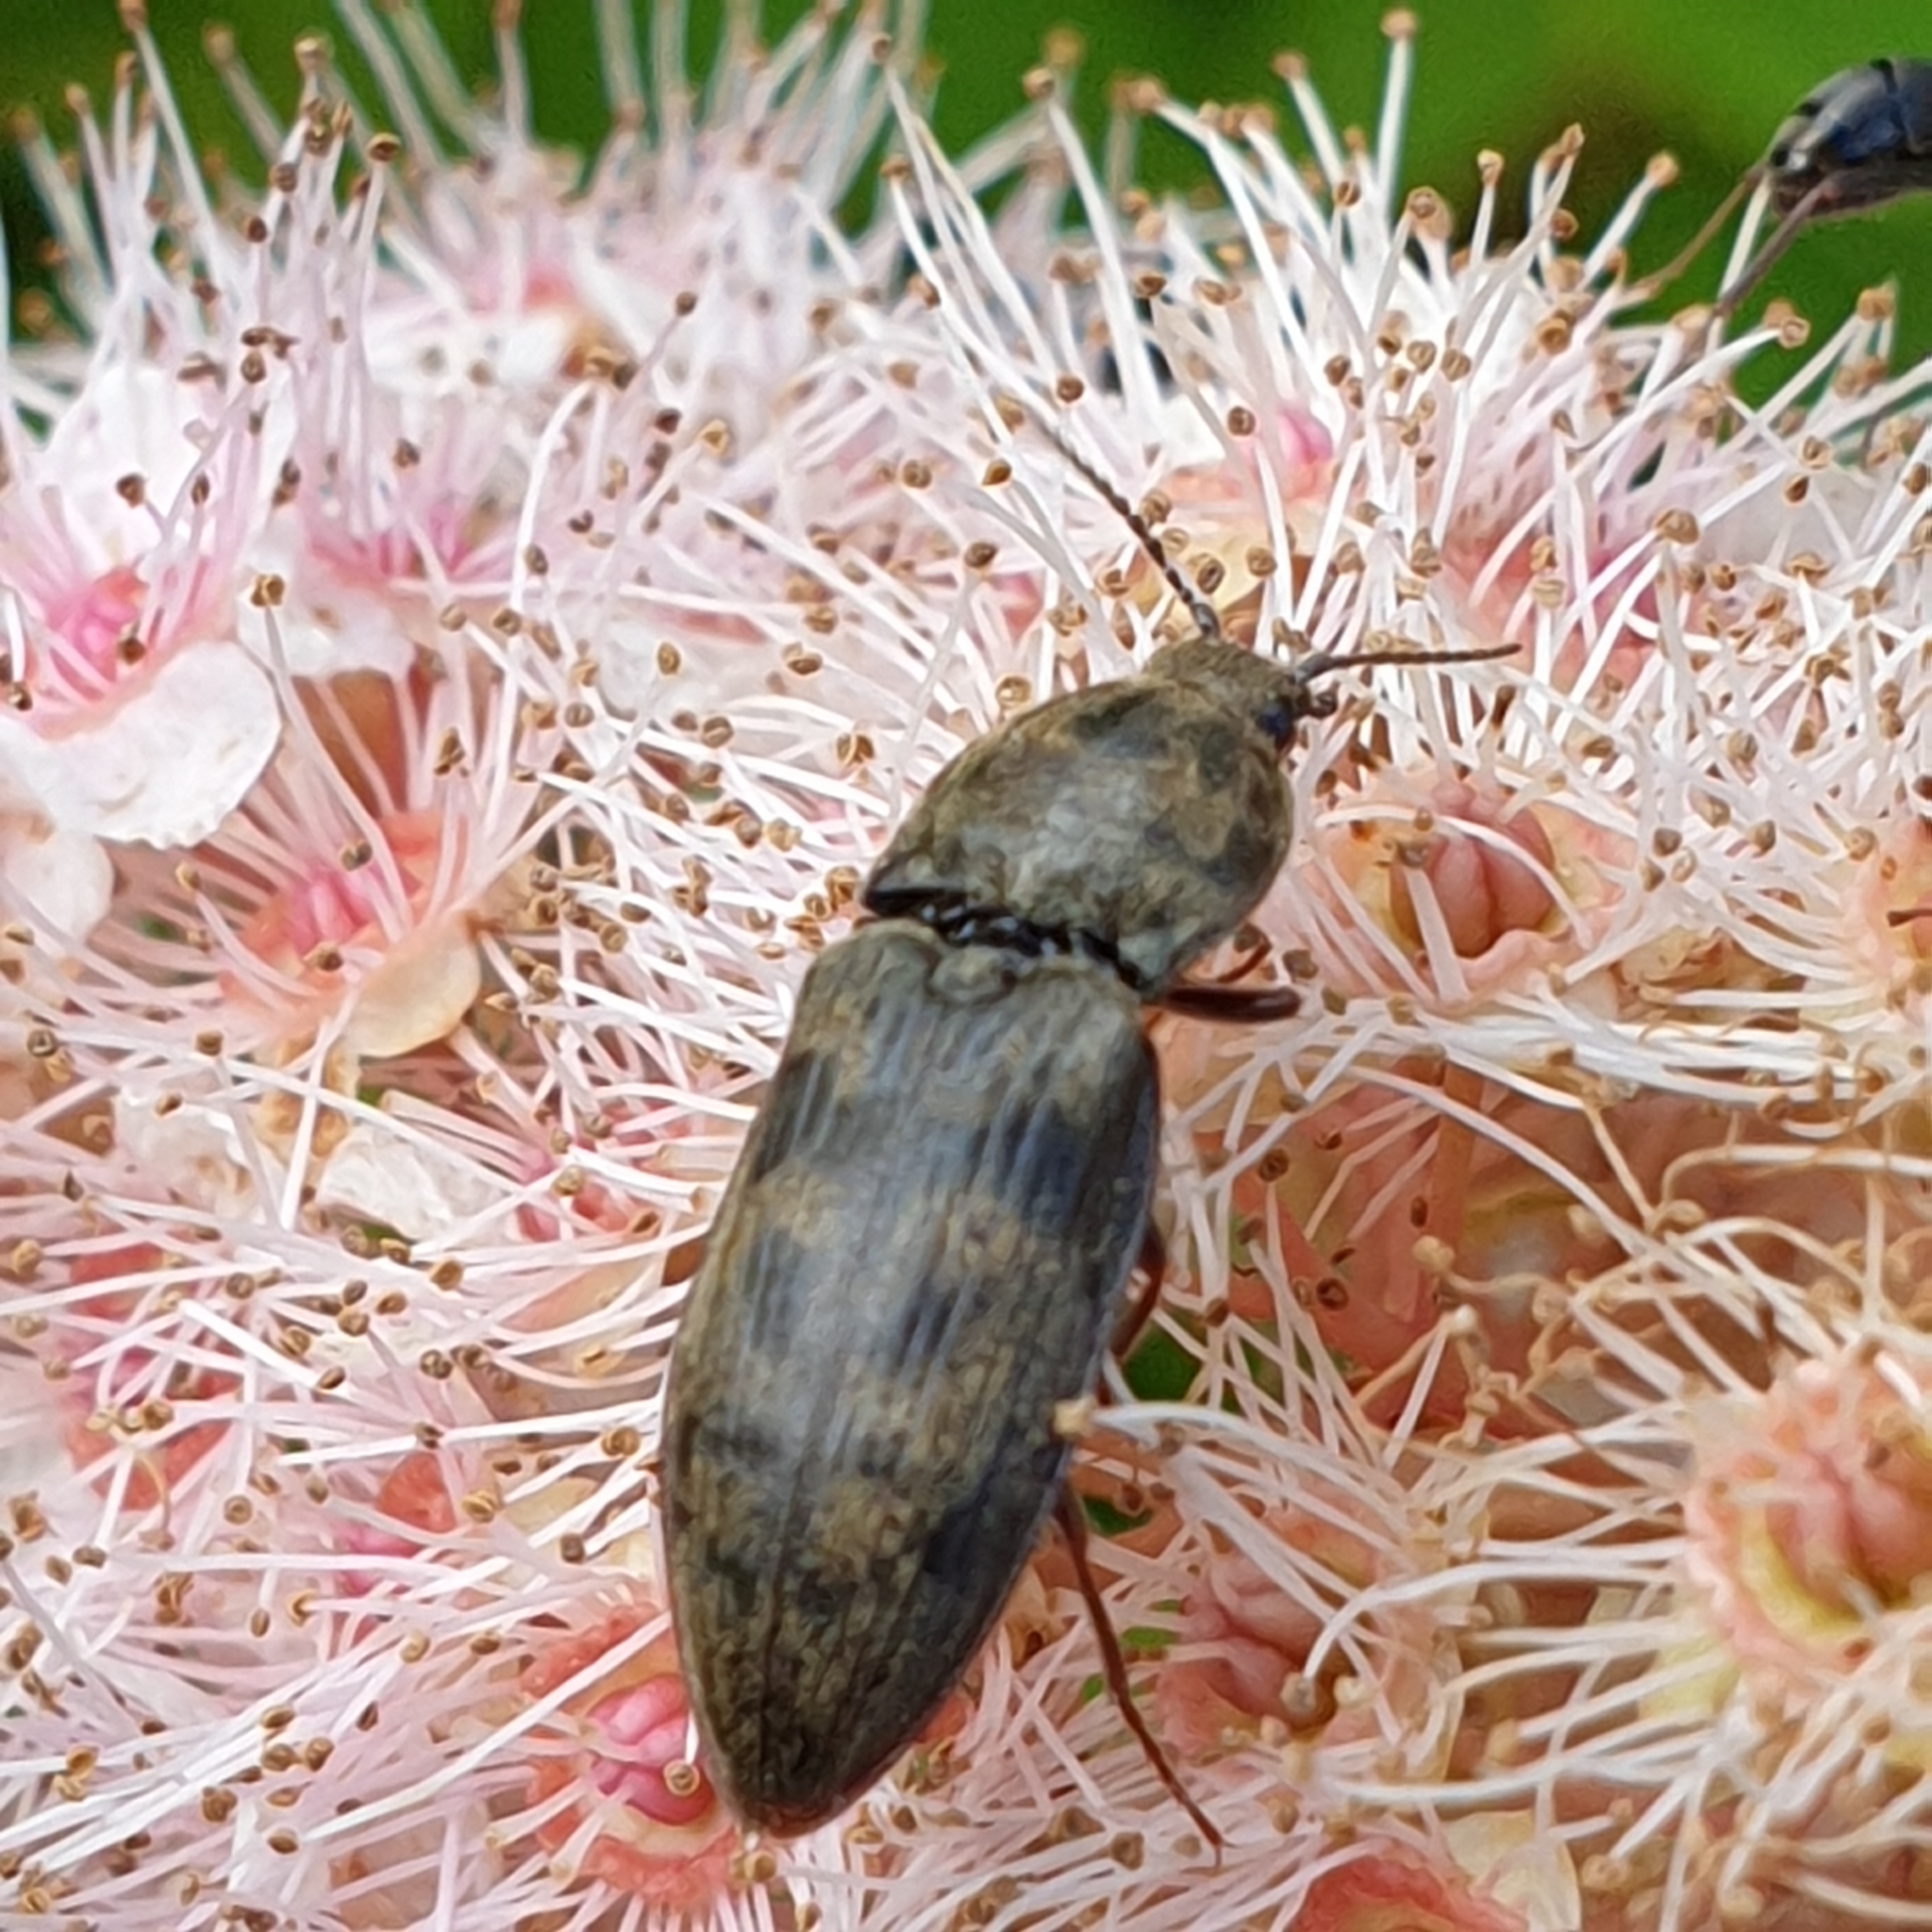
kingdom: Animalia
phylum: Arthropoda
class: Insecta
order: Coleoptera
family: Elateridae
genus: Prosternon
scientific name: Prosternon tessellatum
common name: Chequered click beetle
